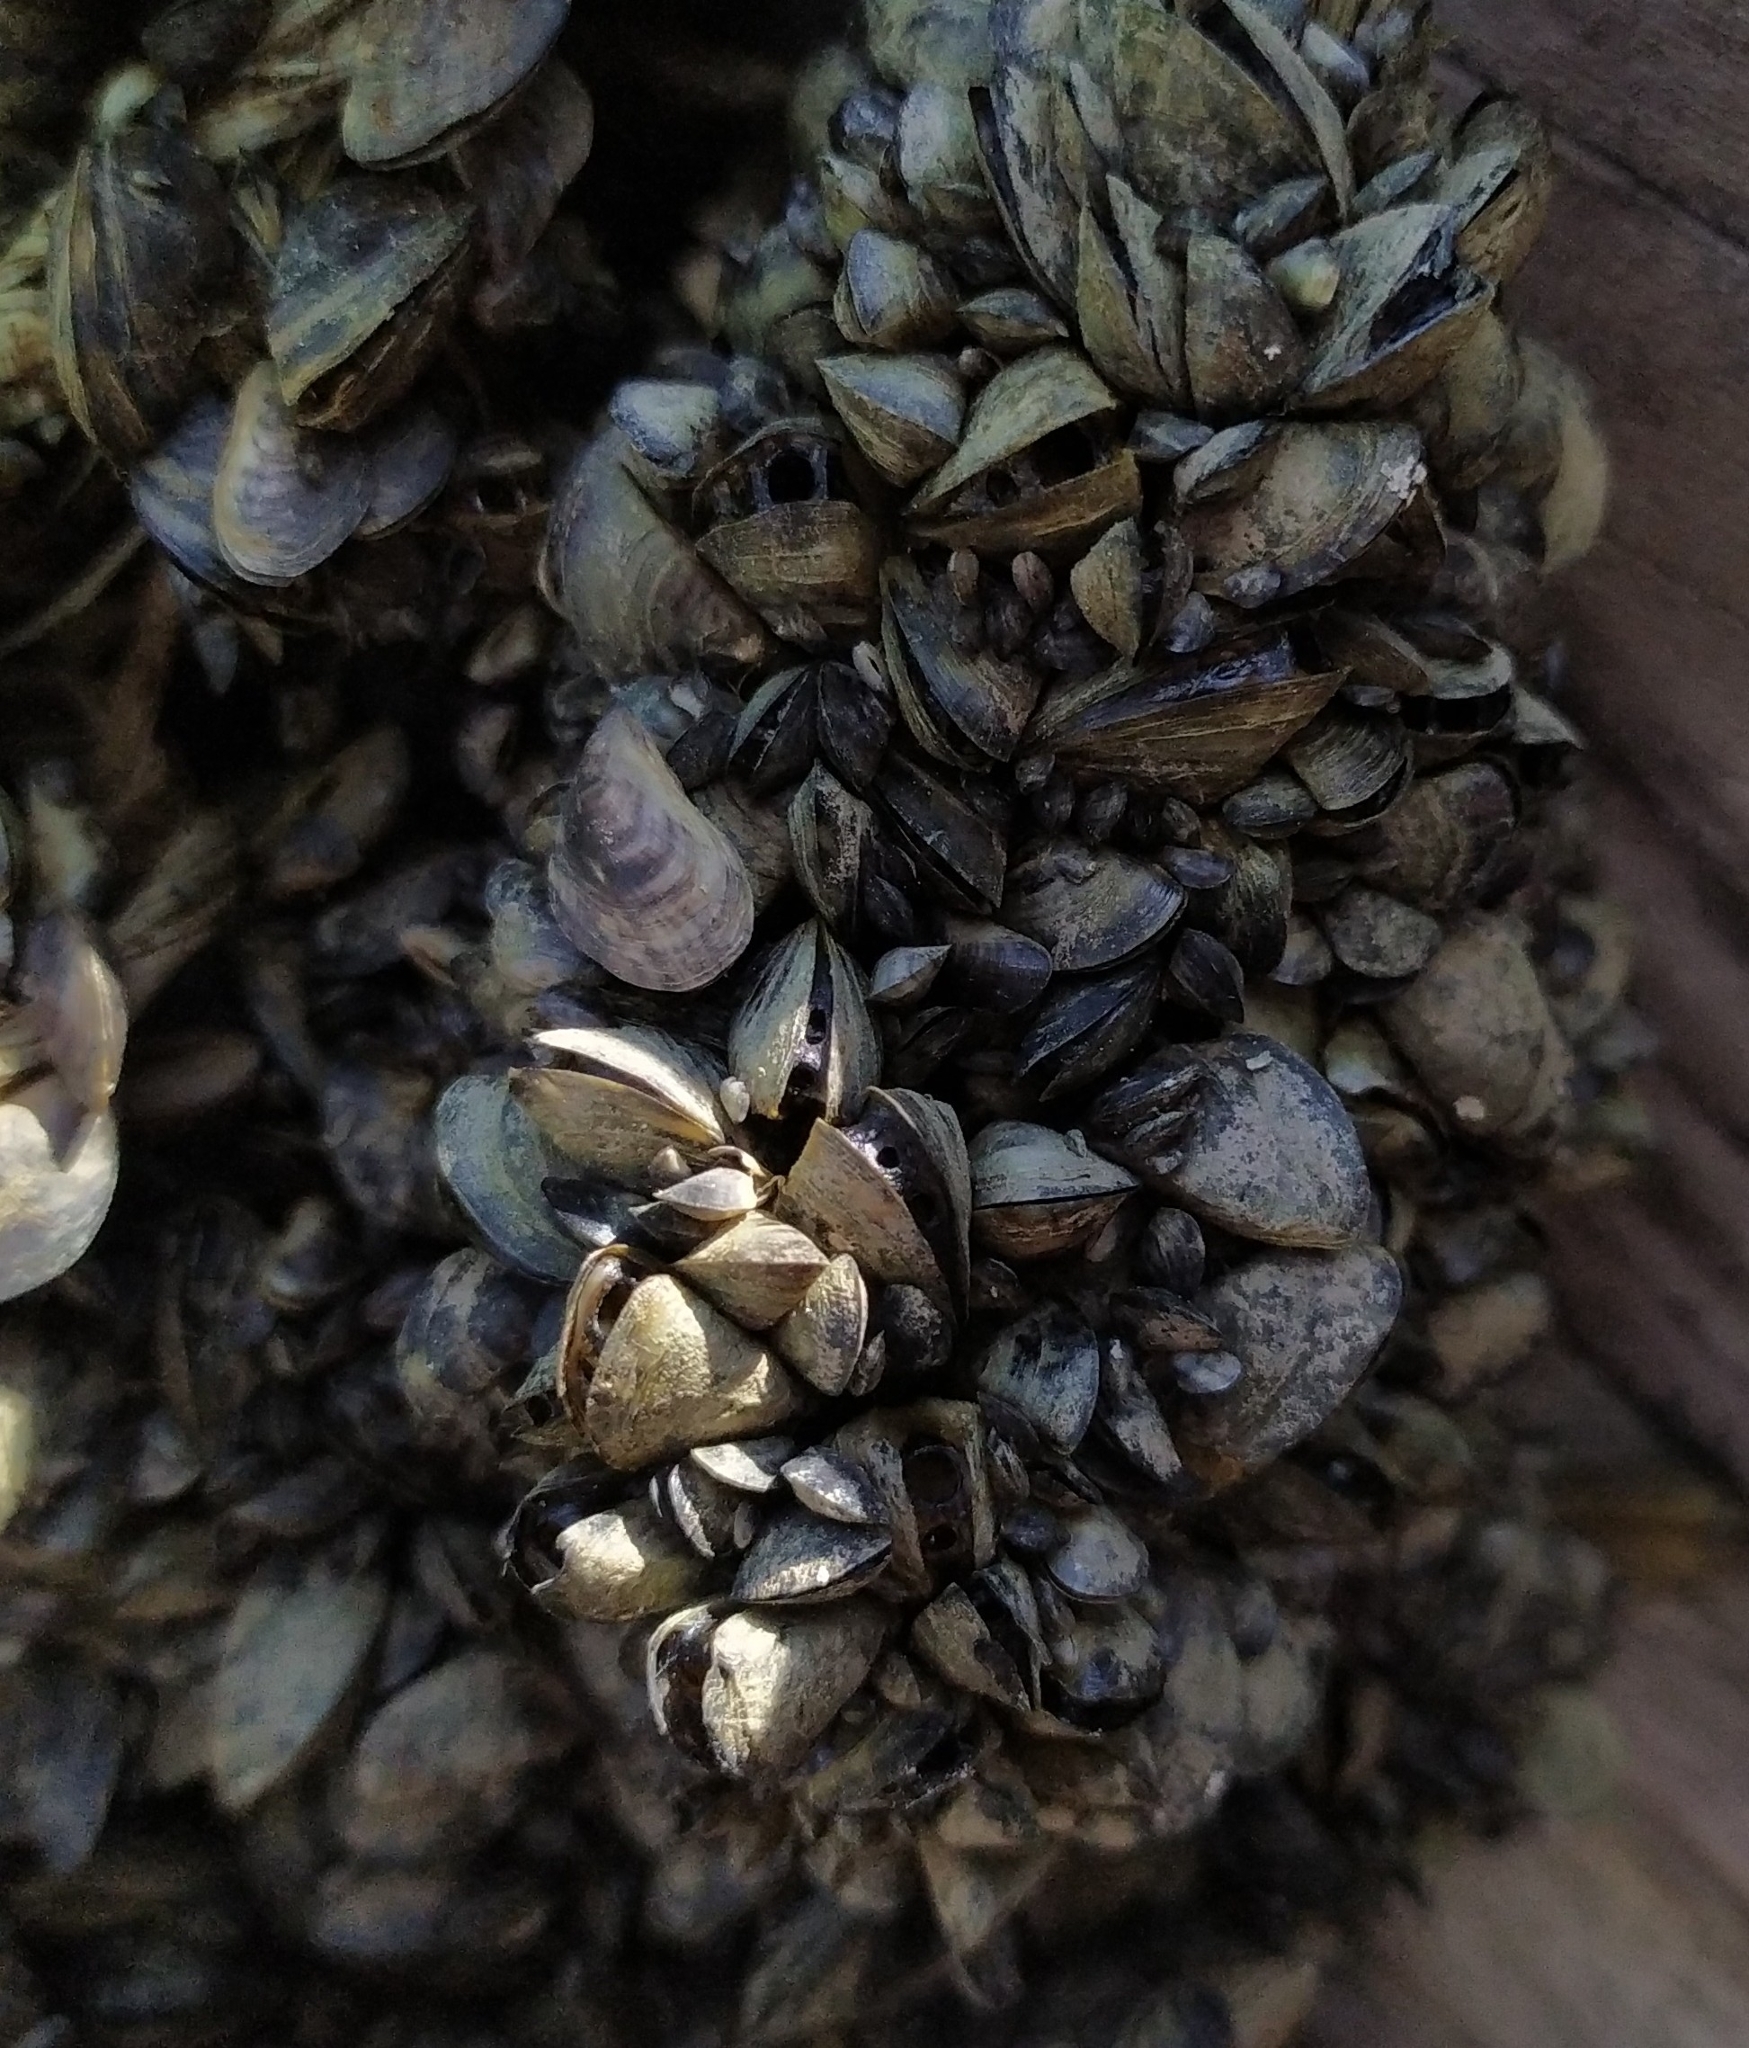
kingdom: Animalia
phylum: Mollusca
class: Bivalvia
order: Myida
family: Dreissenidae
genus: Dreissena
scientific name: Dreissena bugensis
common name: Quagga mussel
